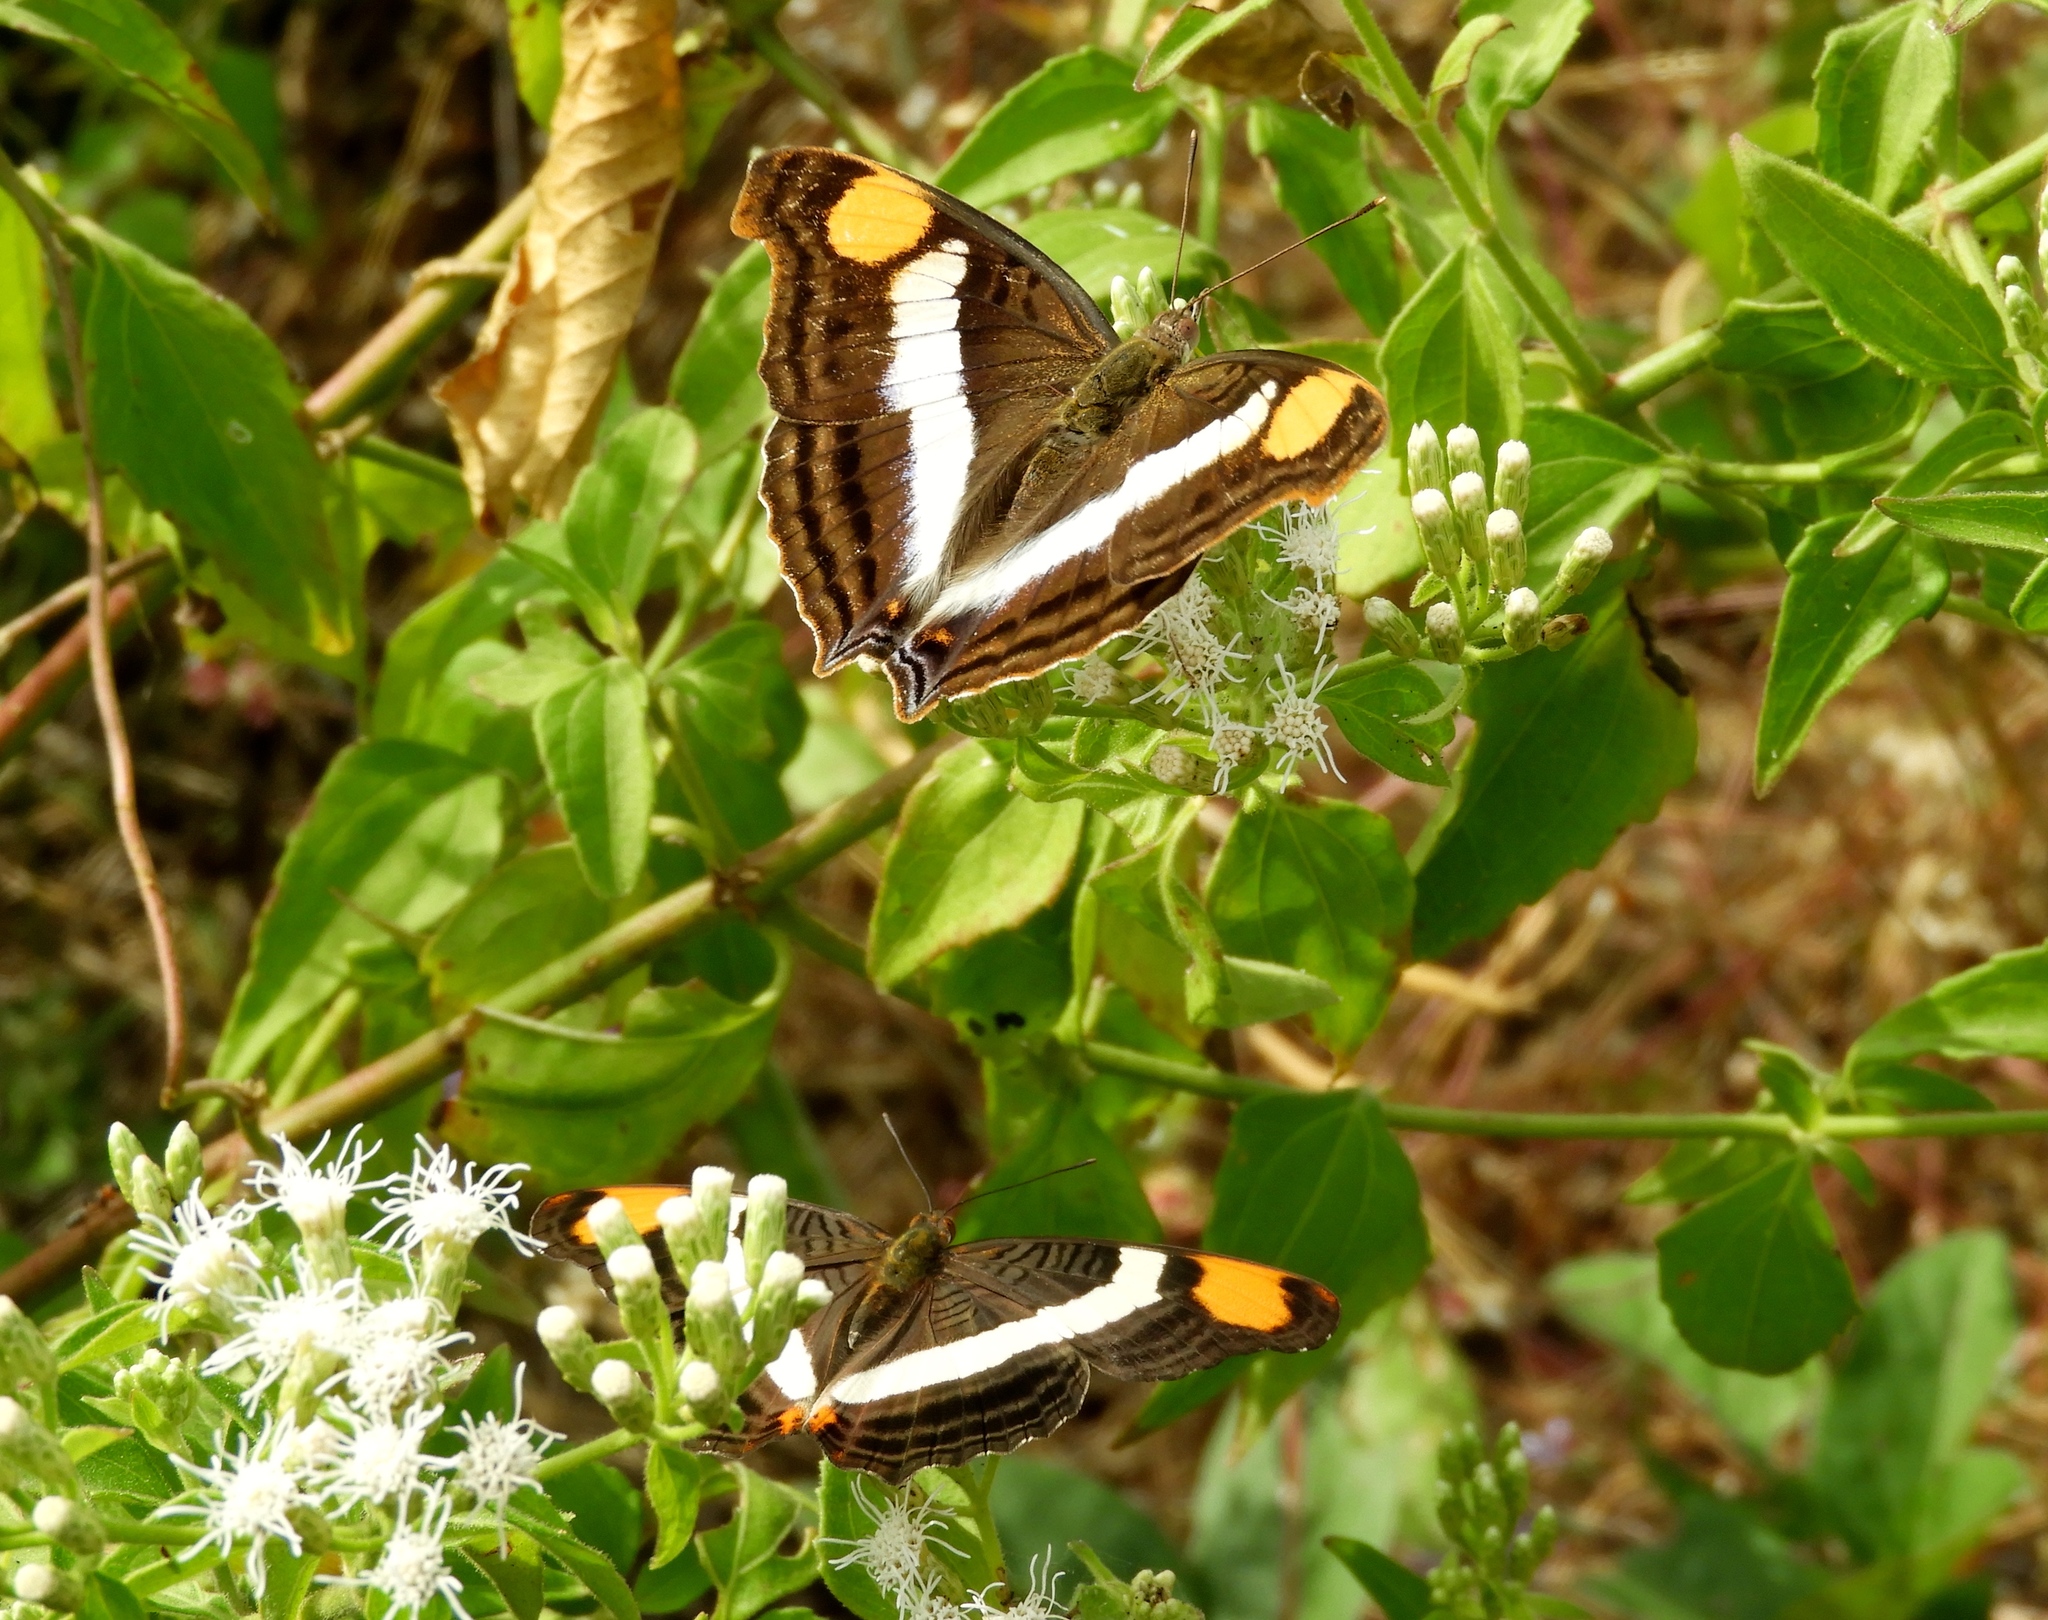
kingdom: Animalia
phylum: Arthropoda
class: Insecta
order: Lepidoptera
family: Nymphalidae
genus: Doxocopa
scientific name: Doxocopa laure
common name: Silver emperor
